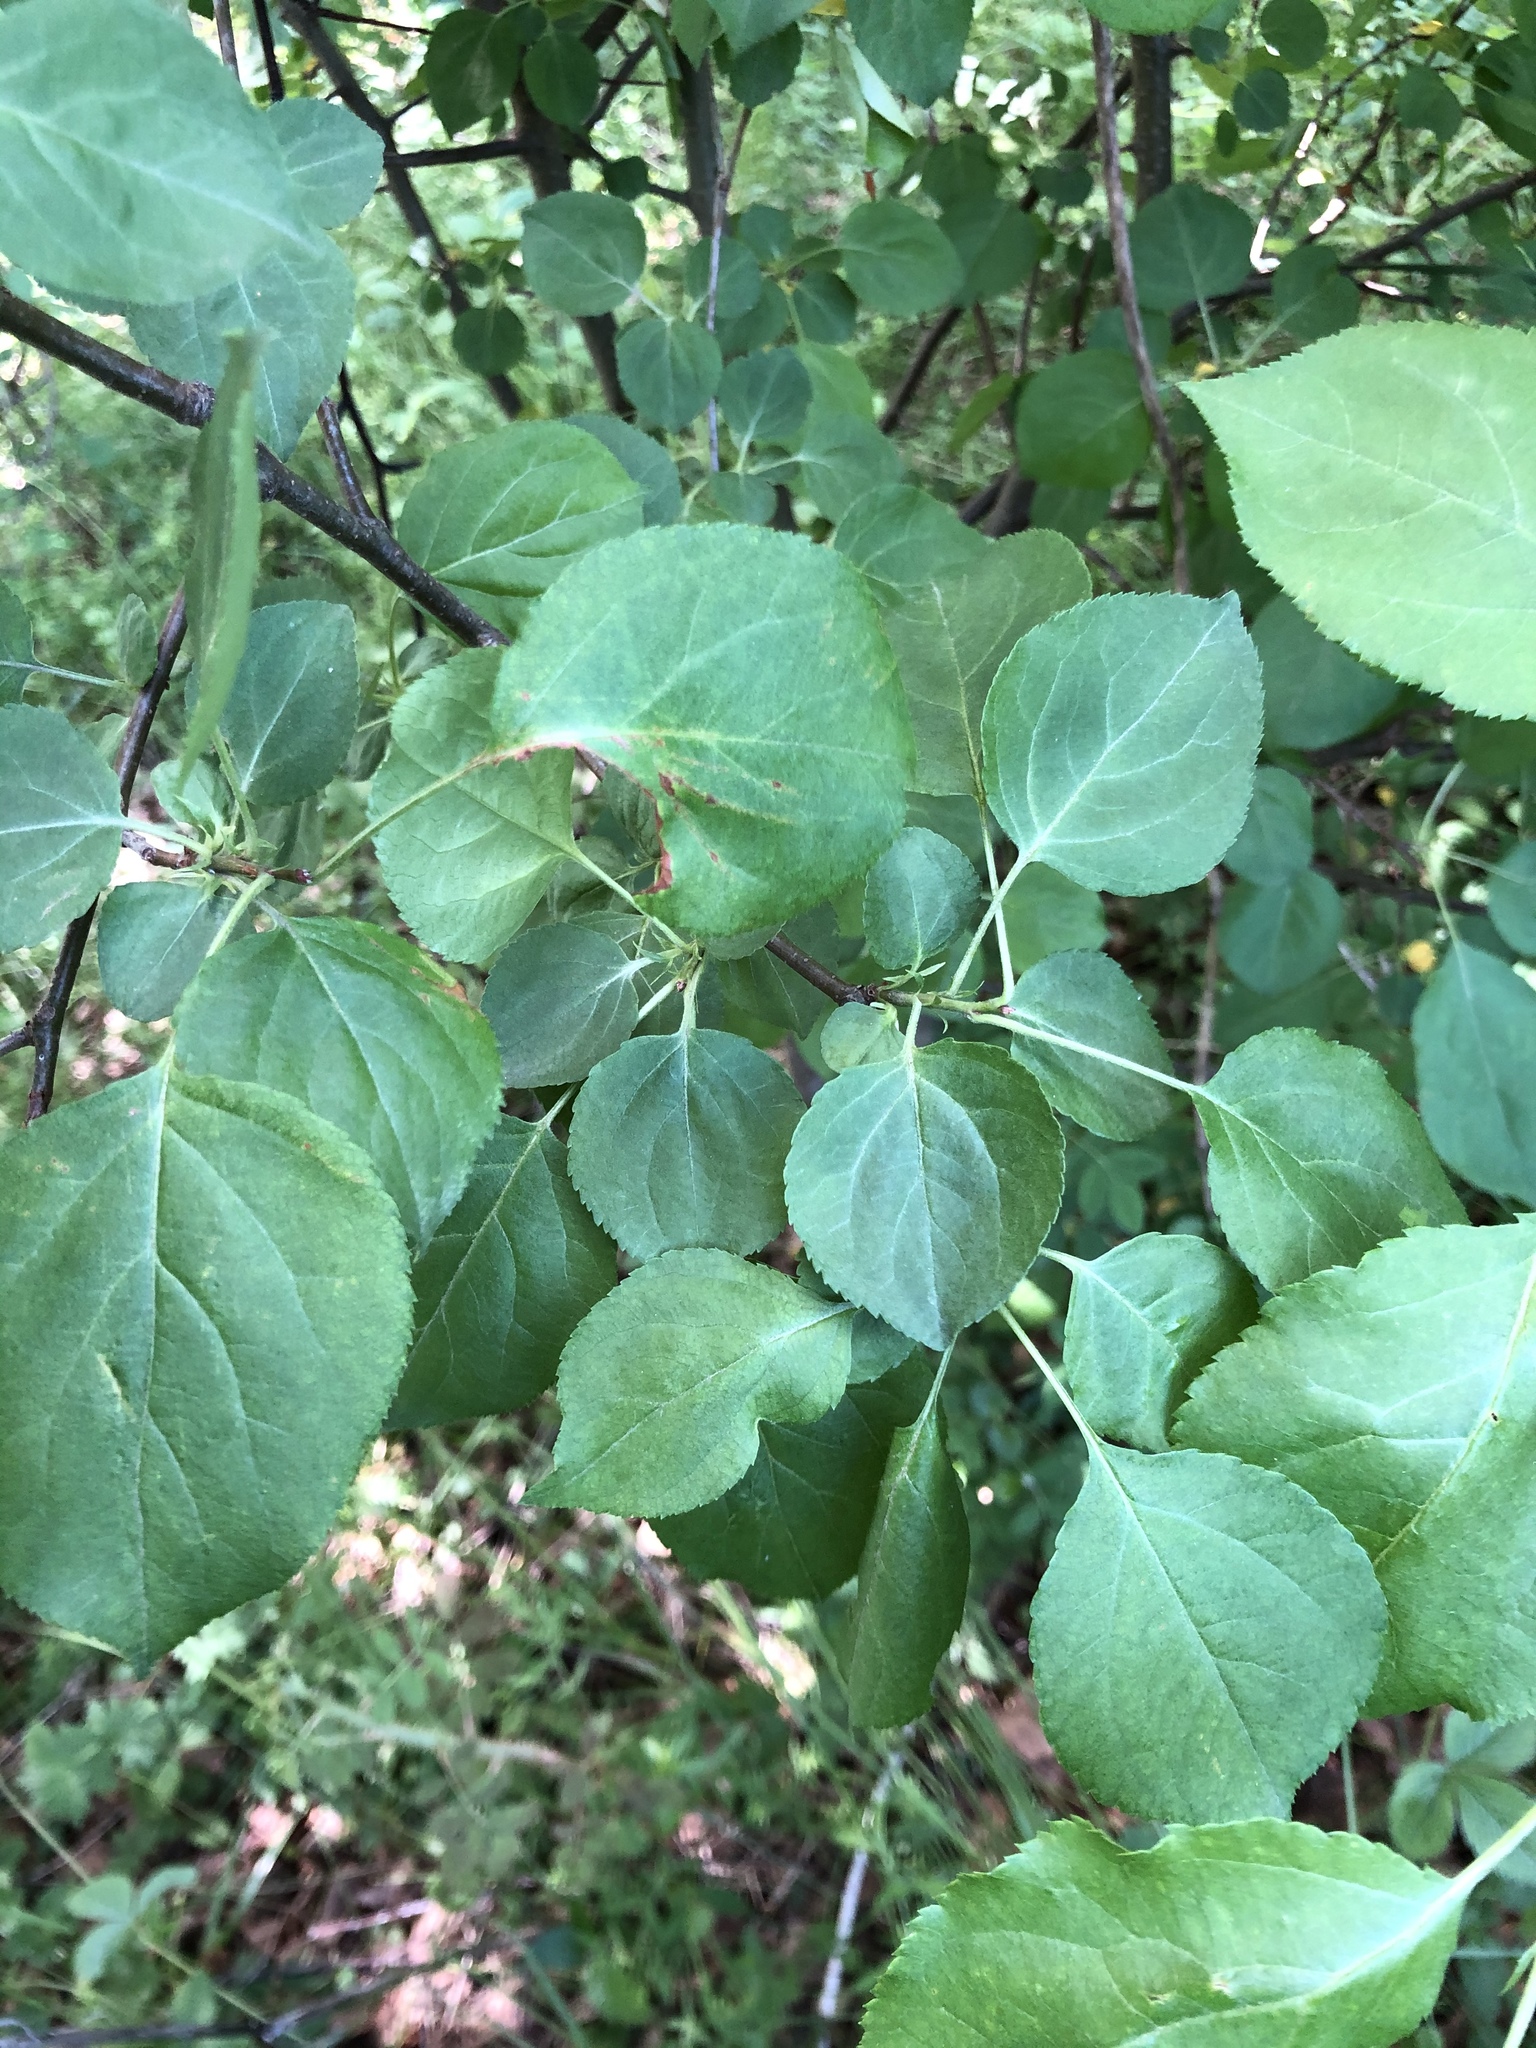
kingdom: Plantae
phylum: Tracheophyta
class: Magnoliopsida
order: Rosales
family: Rosaceae
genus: Malus
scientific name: Malus baccata
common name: Siberian crab
